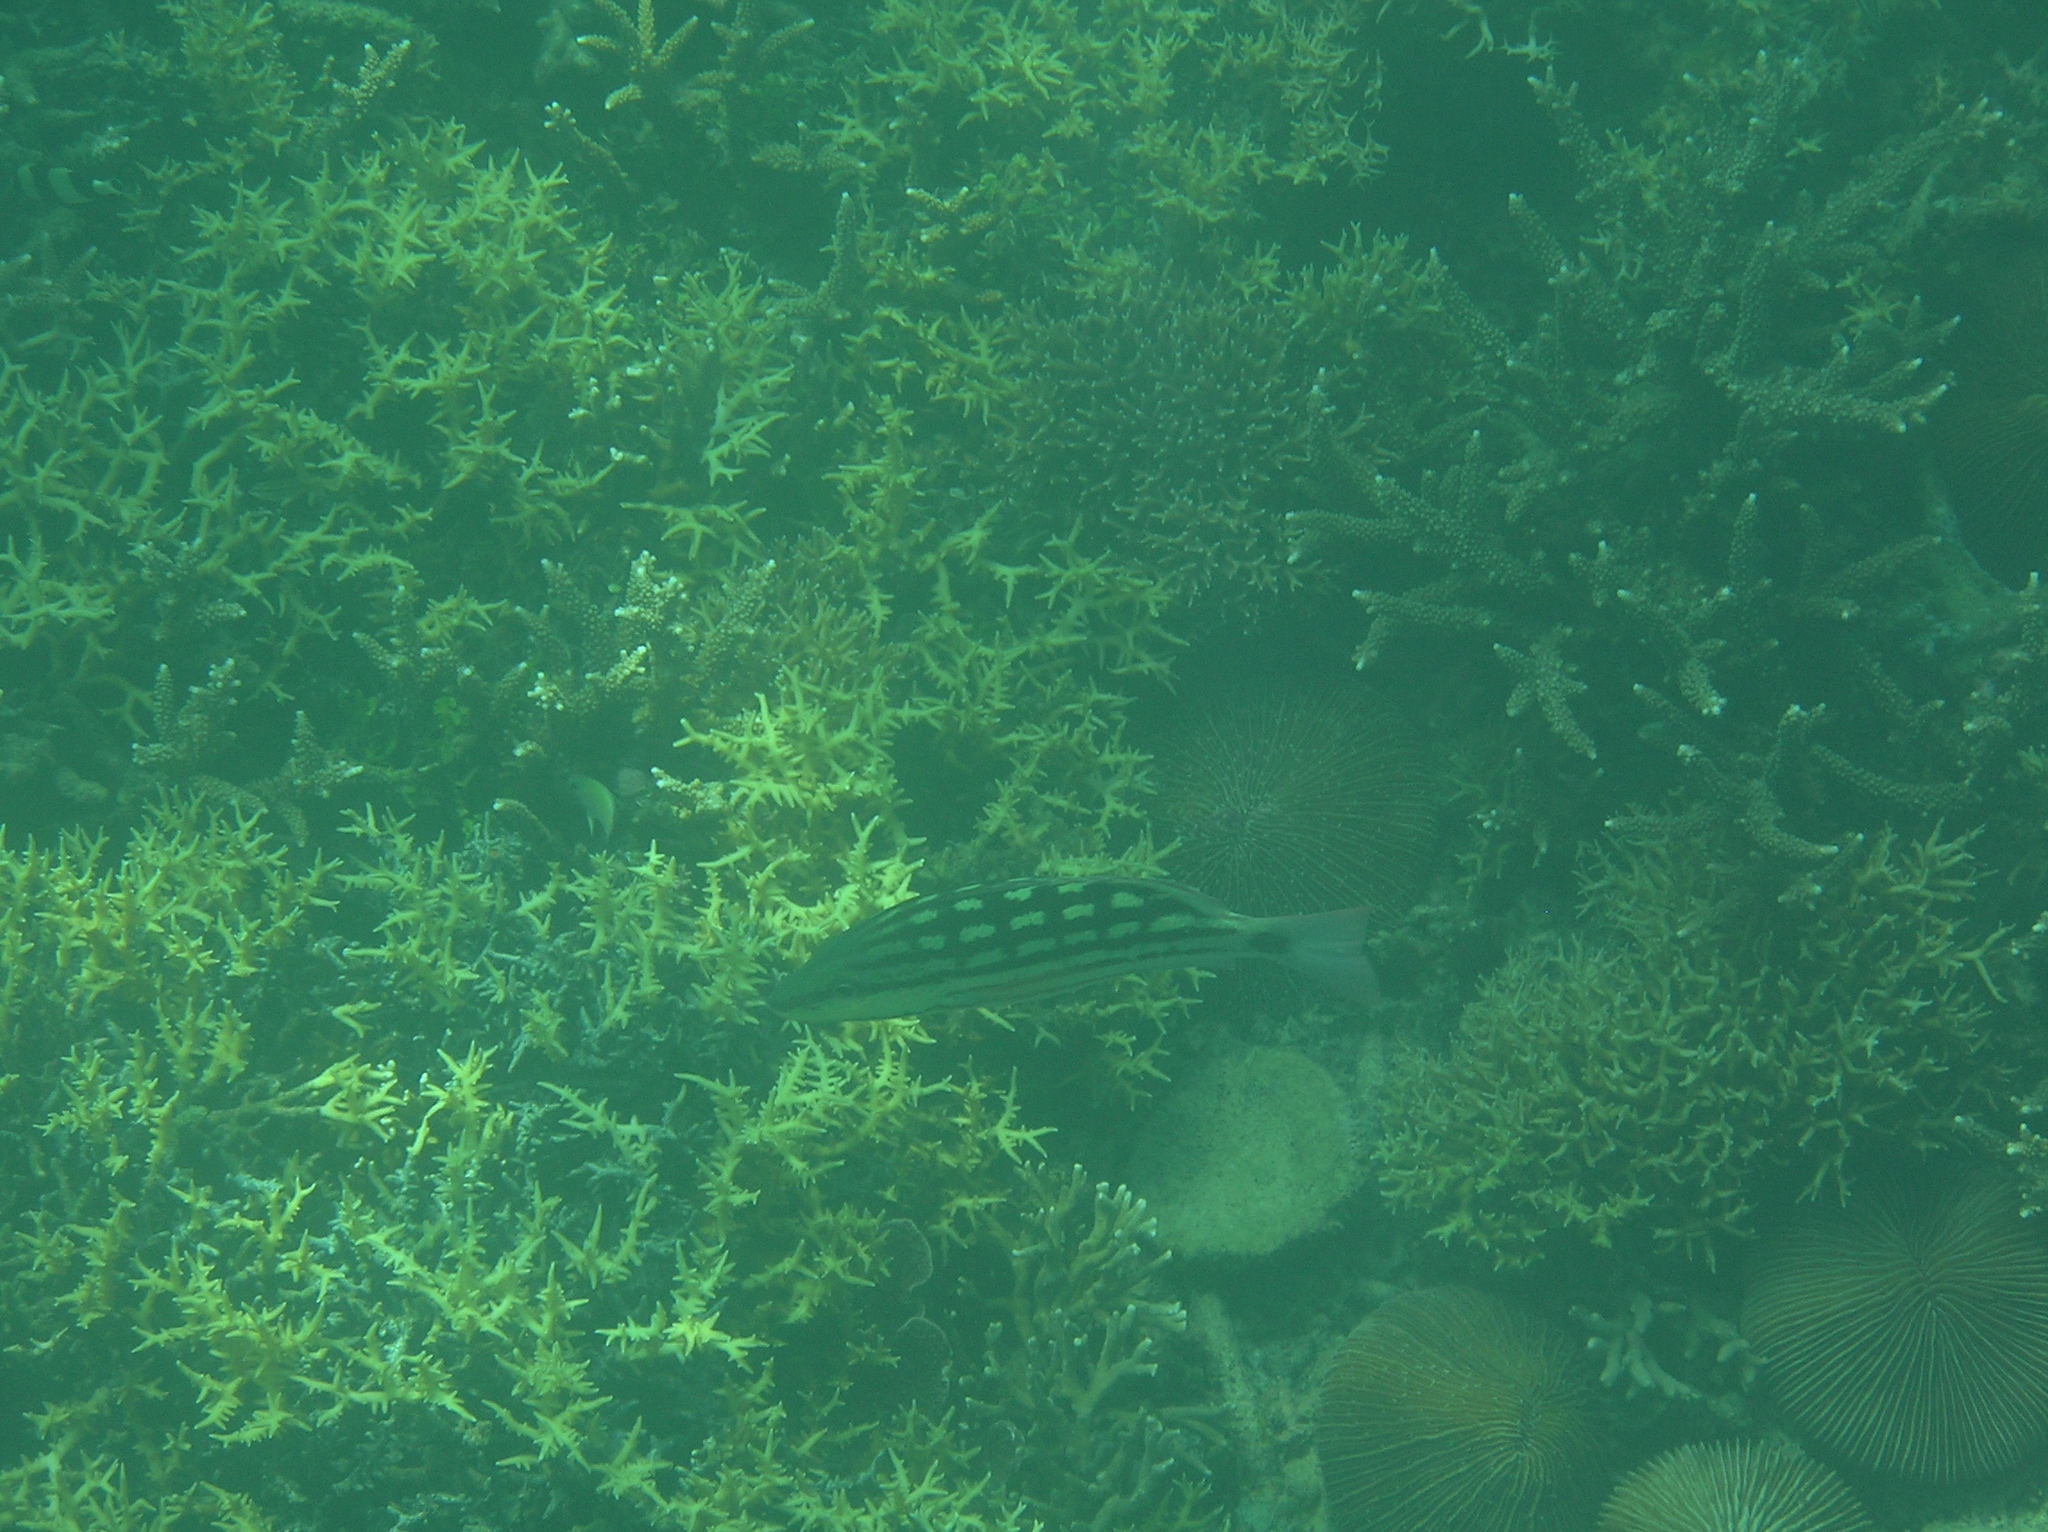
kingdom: Animalia
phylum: Chordata
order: Perciformes
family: Lutjanidae
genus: Lutjanus
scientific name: Lutjanus decussatus
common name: Checkered snapper
